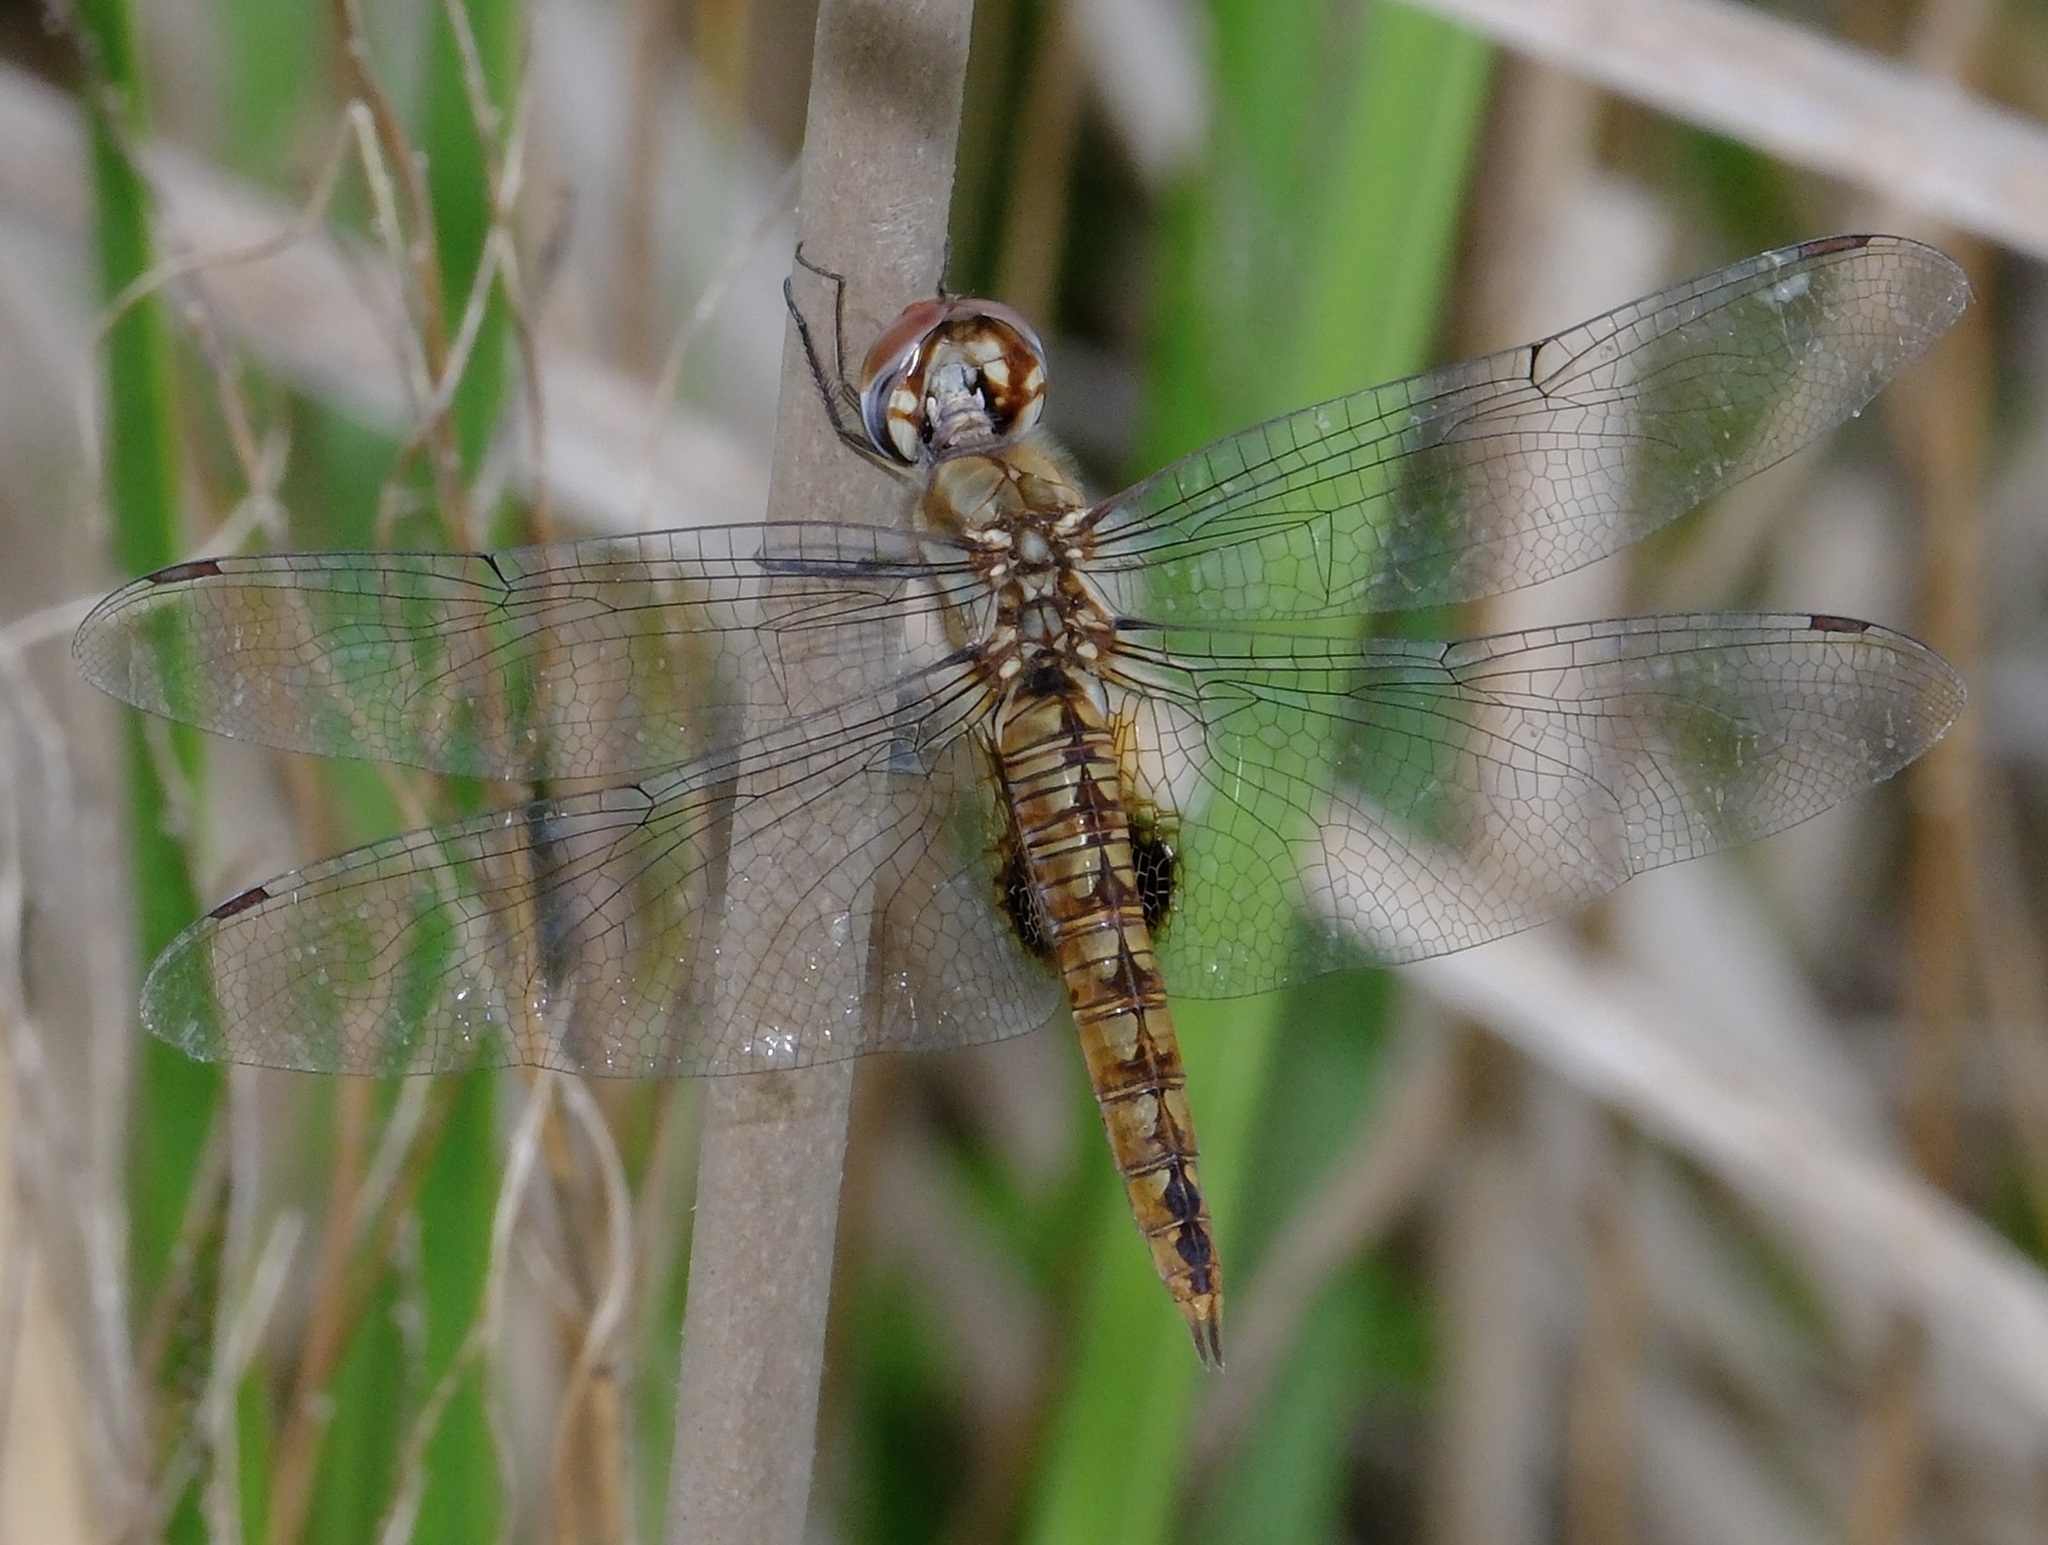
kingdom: Animalia
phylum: Arthropoda
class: Insecta
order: Odonata
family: Libellulidae
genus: Pantala
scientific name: Pantala hymenaea
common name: Spot-winged glider
